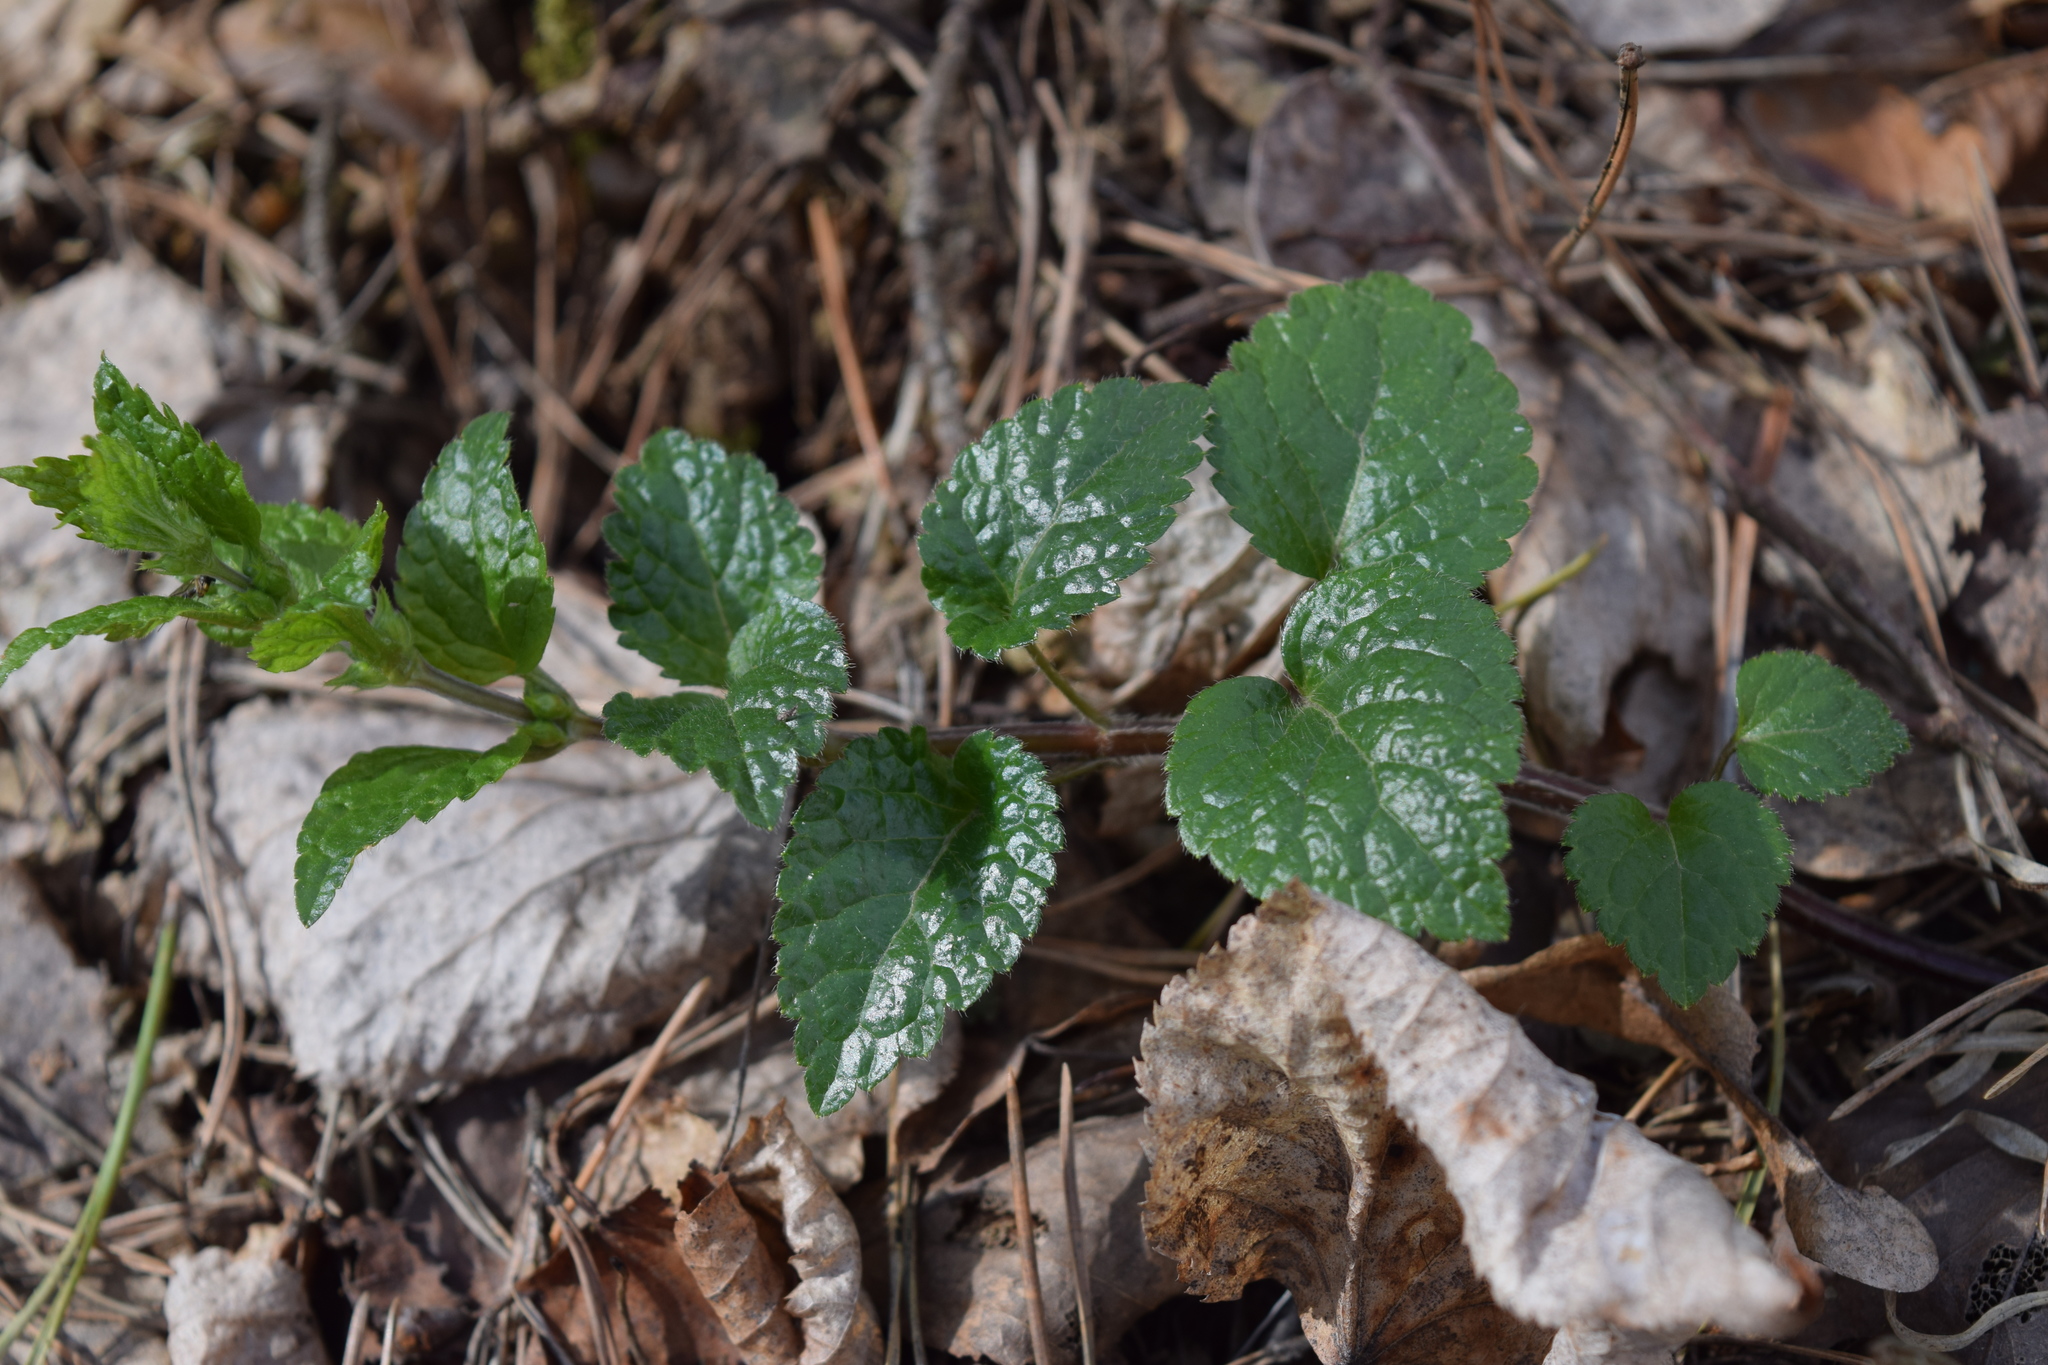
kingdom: Plantae
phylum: Tracheophyta
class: Magnoliopsida
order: Lamiales
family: Lamiaceae
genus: Lamium
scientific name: Lamium galeobdolon
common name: Yellow archangel
